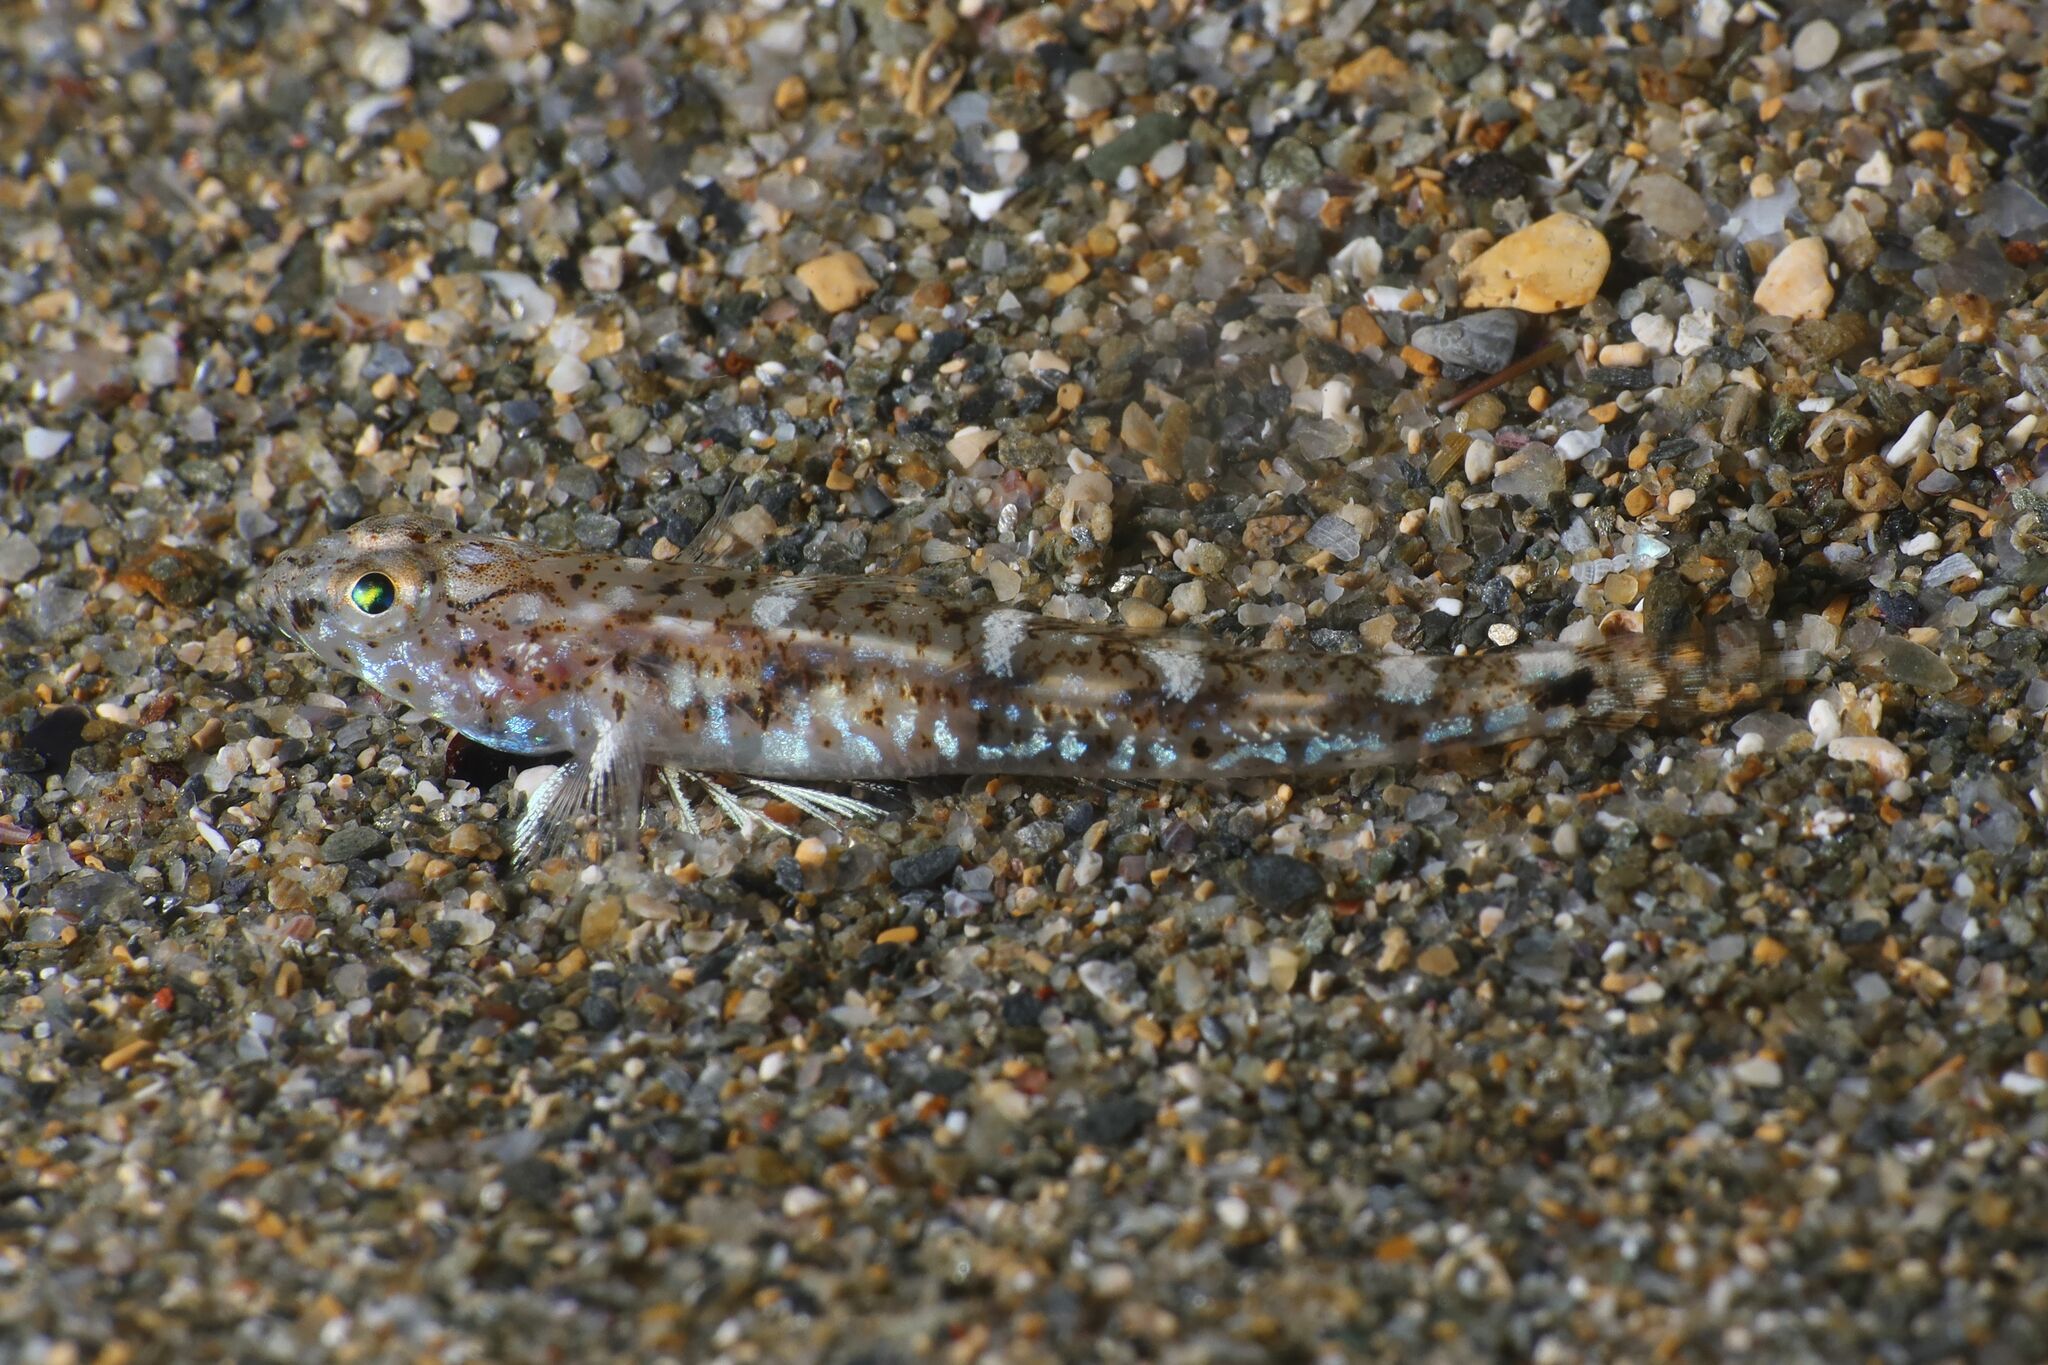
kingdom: Animalia
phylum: Chordata
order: Perciformes
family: Gobiidae
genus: Pomatoschistus
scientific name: Pomatoschistus marmoratus
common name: Marbled goby
